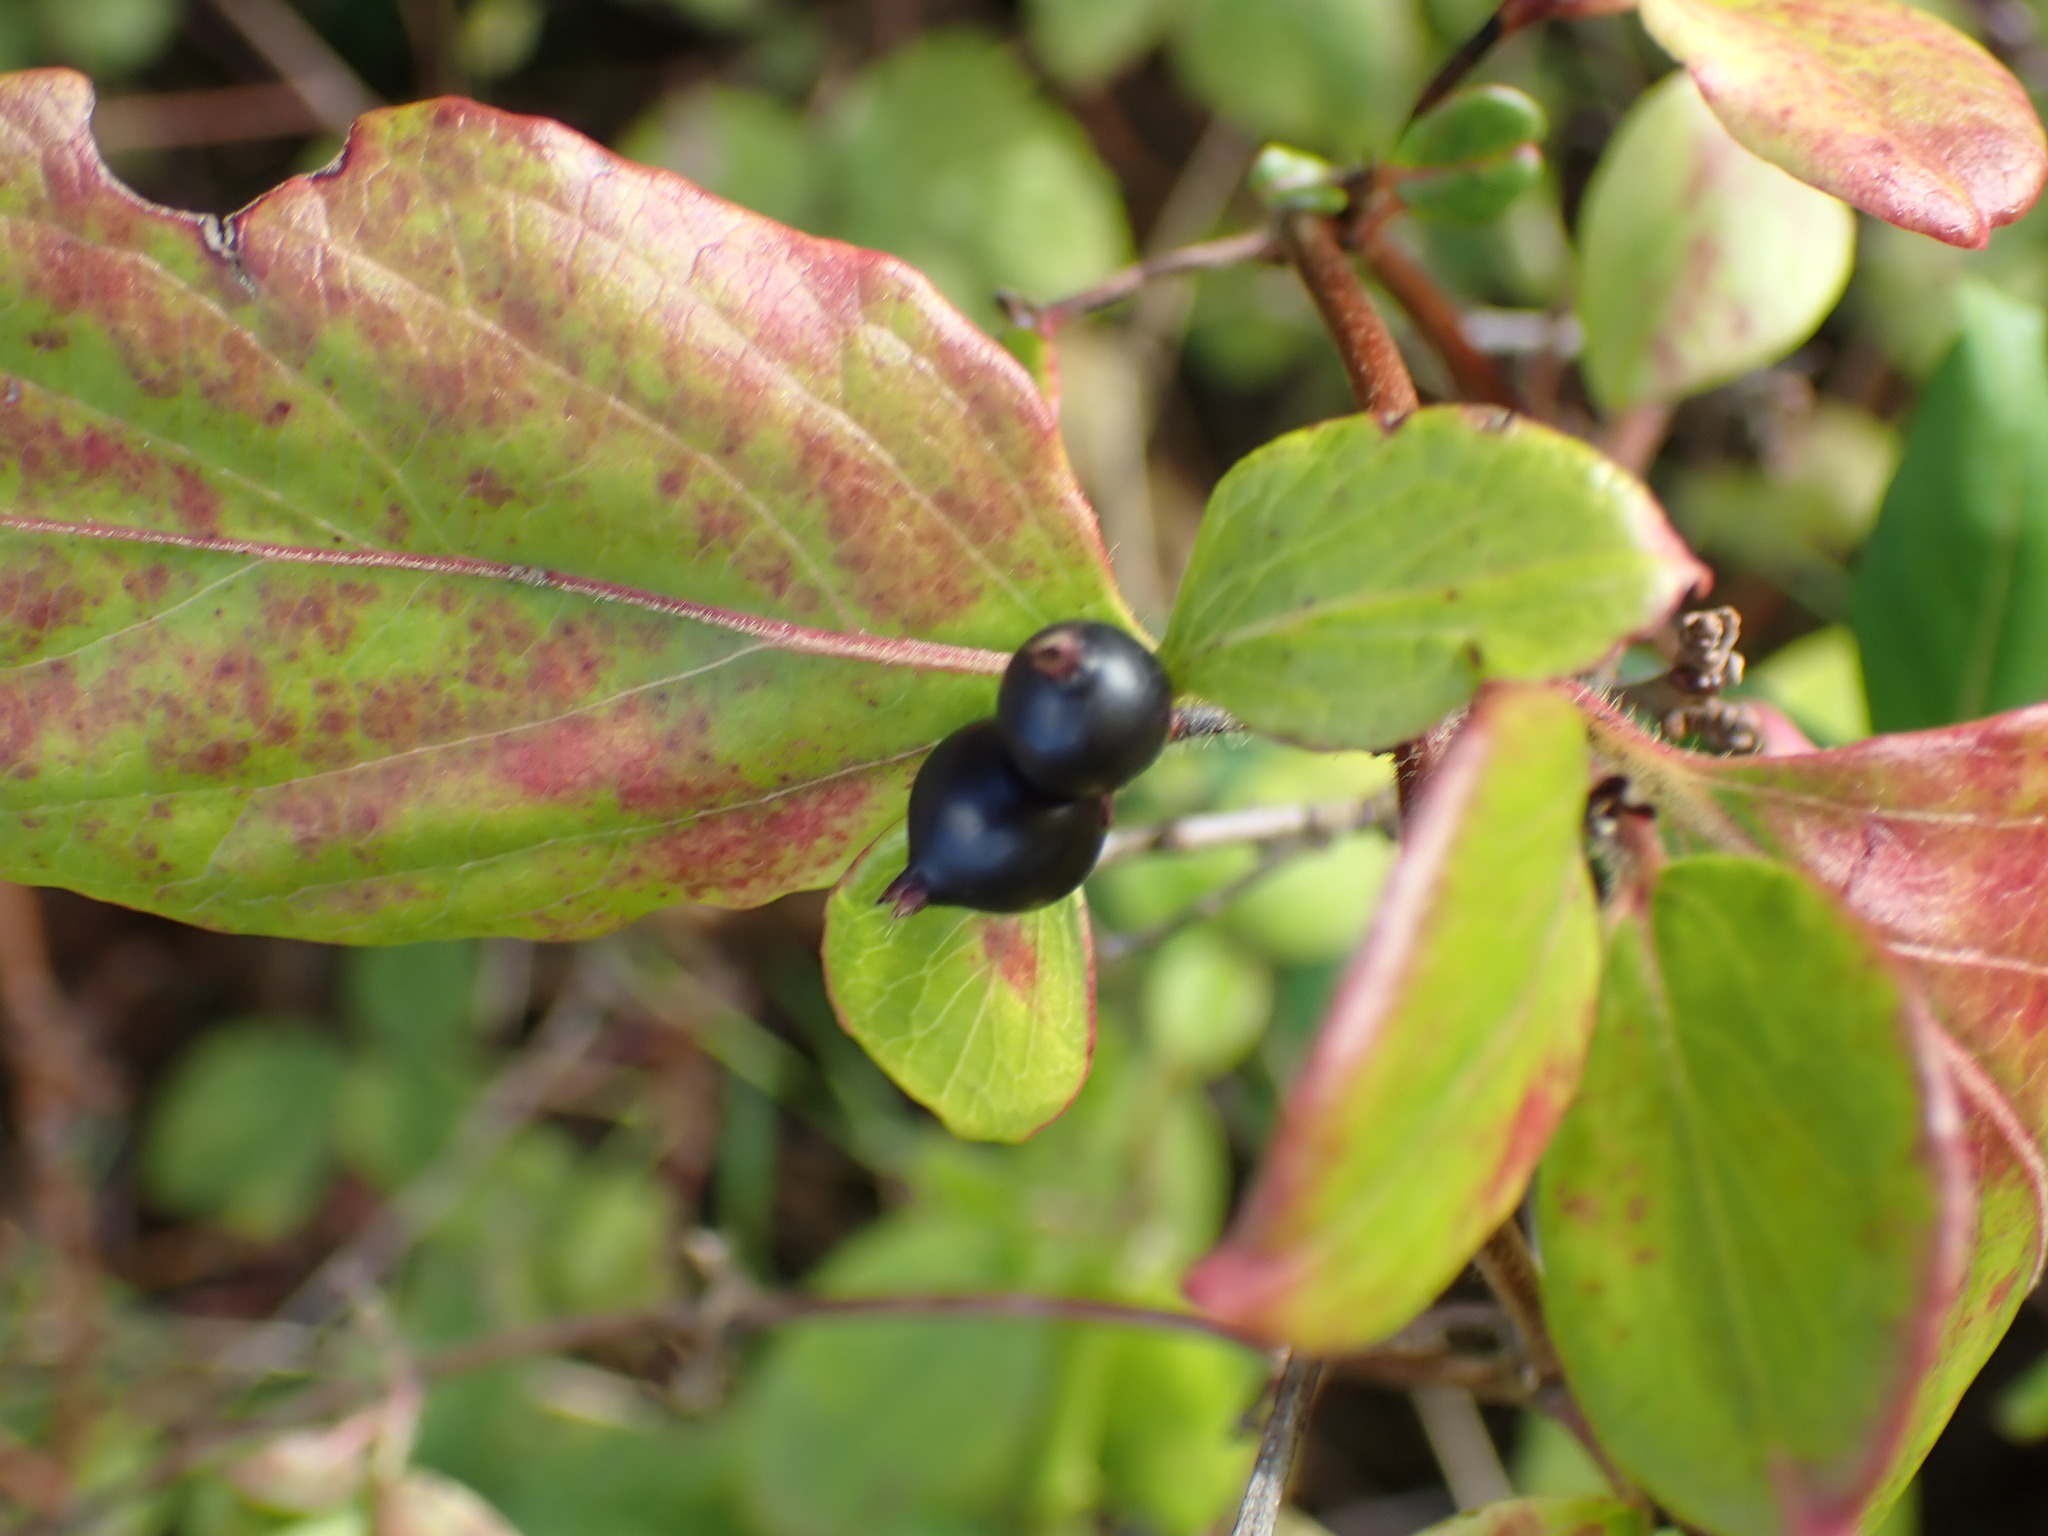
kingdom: Plantae
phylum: Tracheophyta
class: Magnoliopsida
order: Dipsacales
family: Caprifoliaceae
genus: Lonicera
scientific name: Lonicera japonica
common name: Japanese honeysuckle
